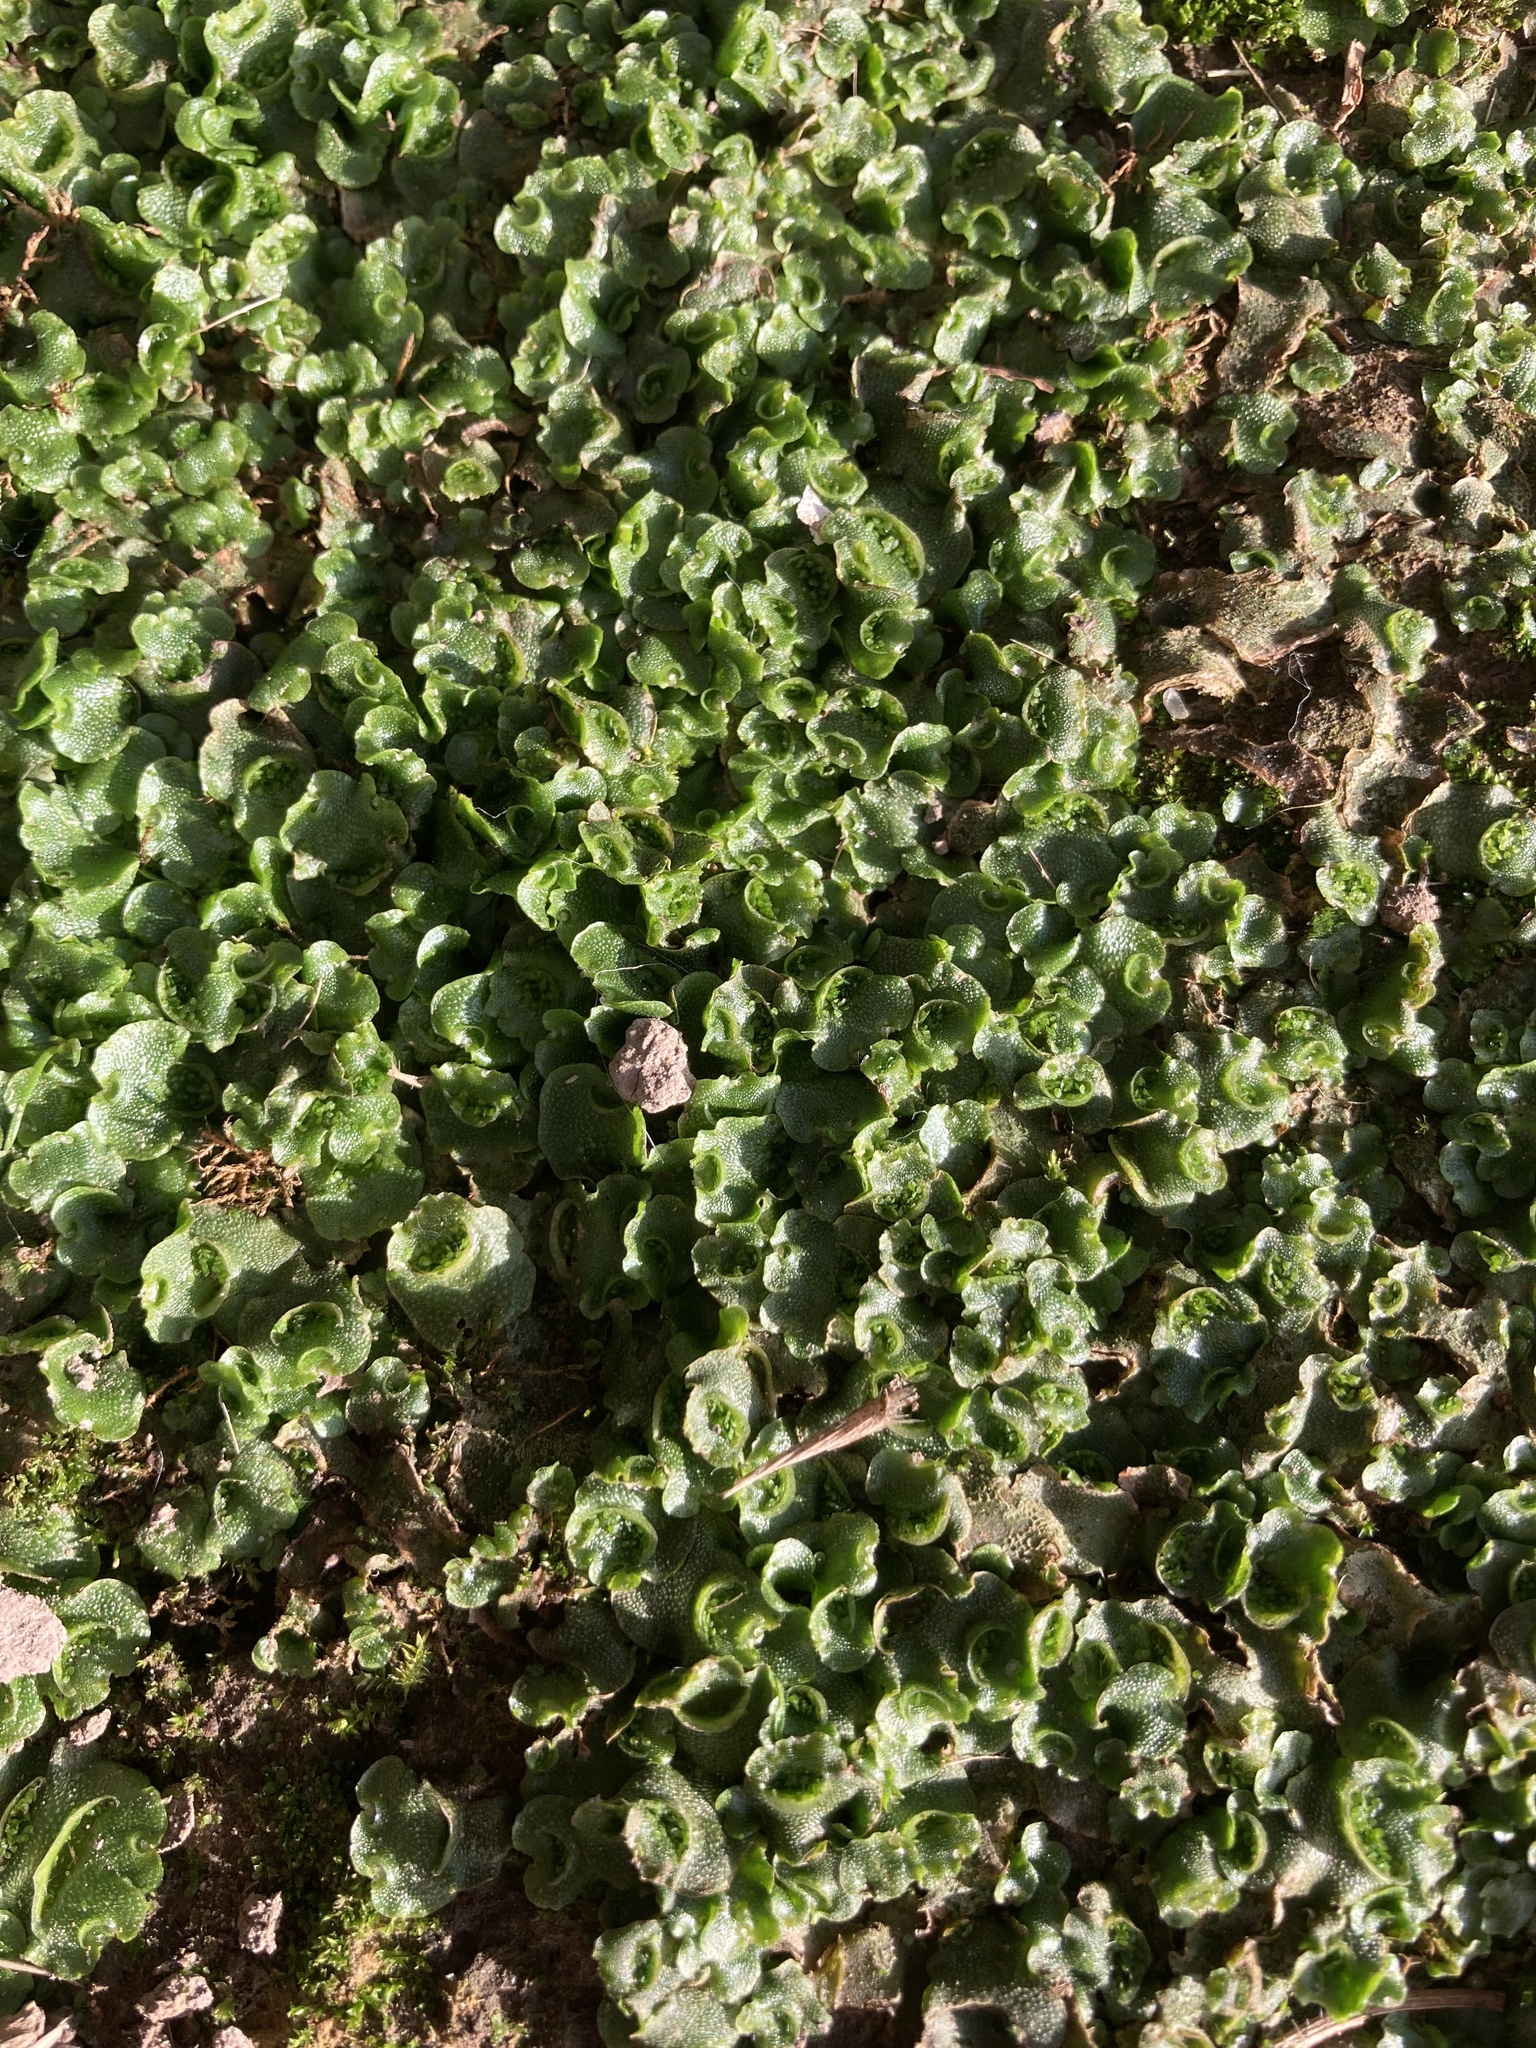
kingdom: Plantae
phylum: Marchantiophyta
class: Marchantiopsida
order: Lunulariales
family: Lunulariaceae
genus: Lunularia
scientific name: Lunularia cruciata
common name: Crescent-cup liverwort
